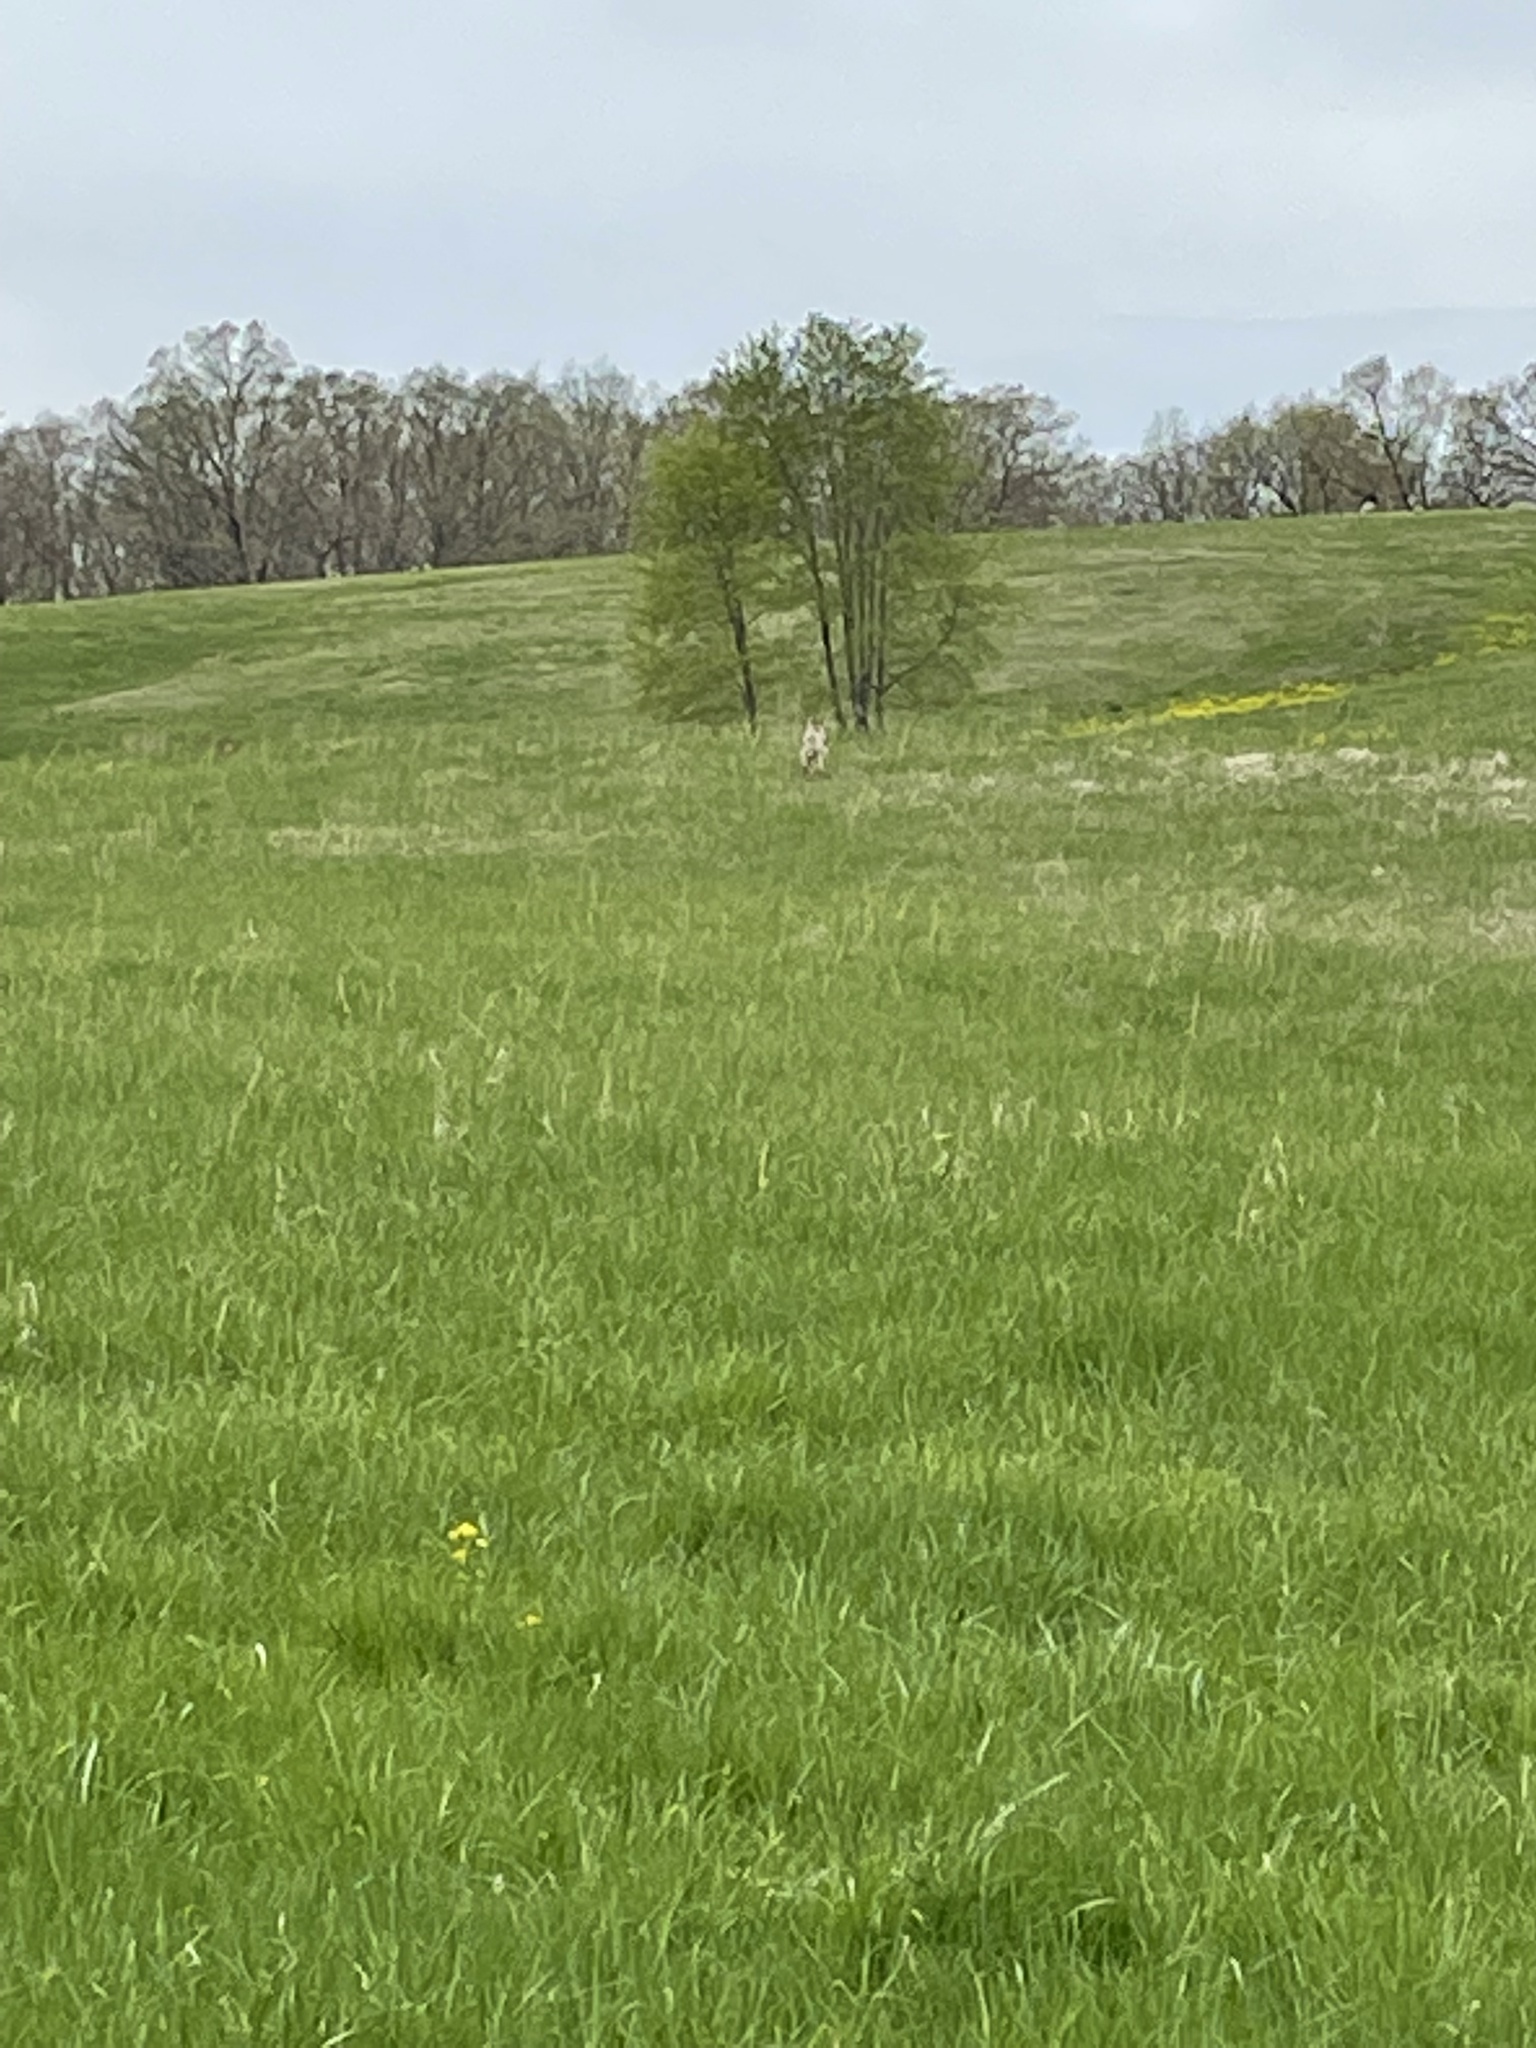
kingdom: Animalia
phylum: Chordata
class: Mammalia
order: Carnivora
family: Canidae
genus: Canis
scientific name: Canis latrans
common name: Coyote
